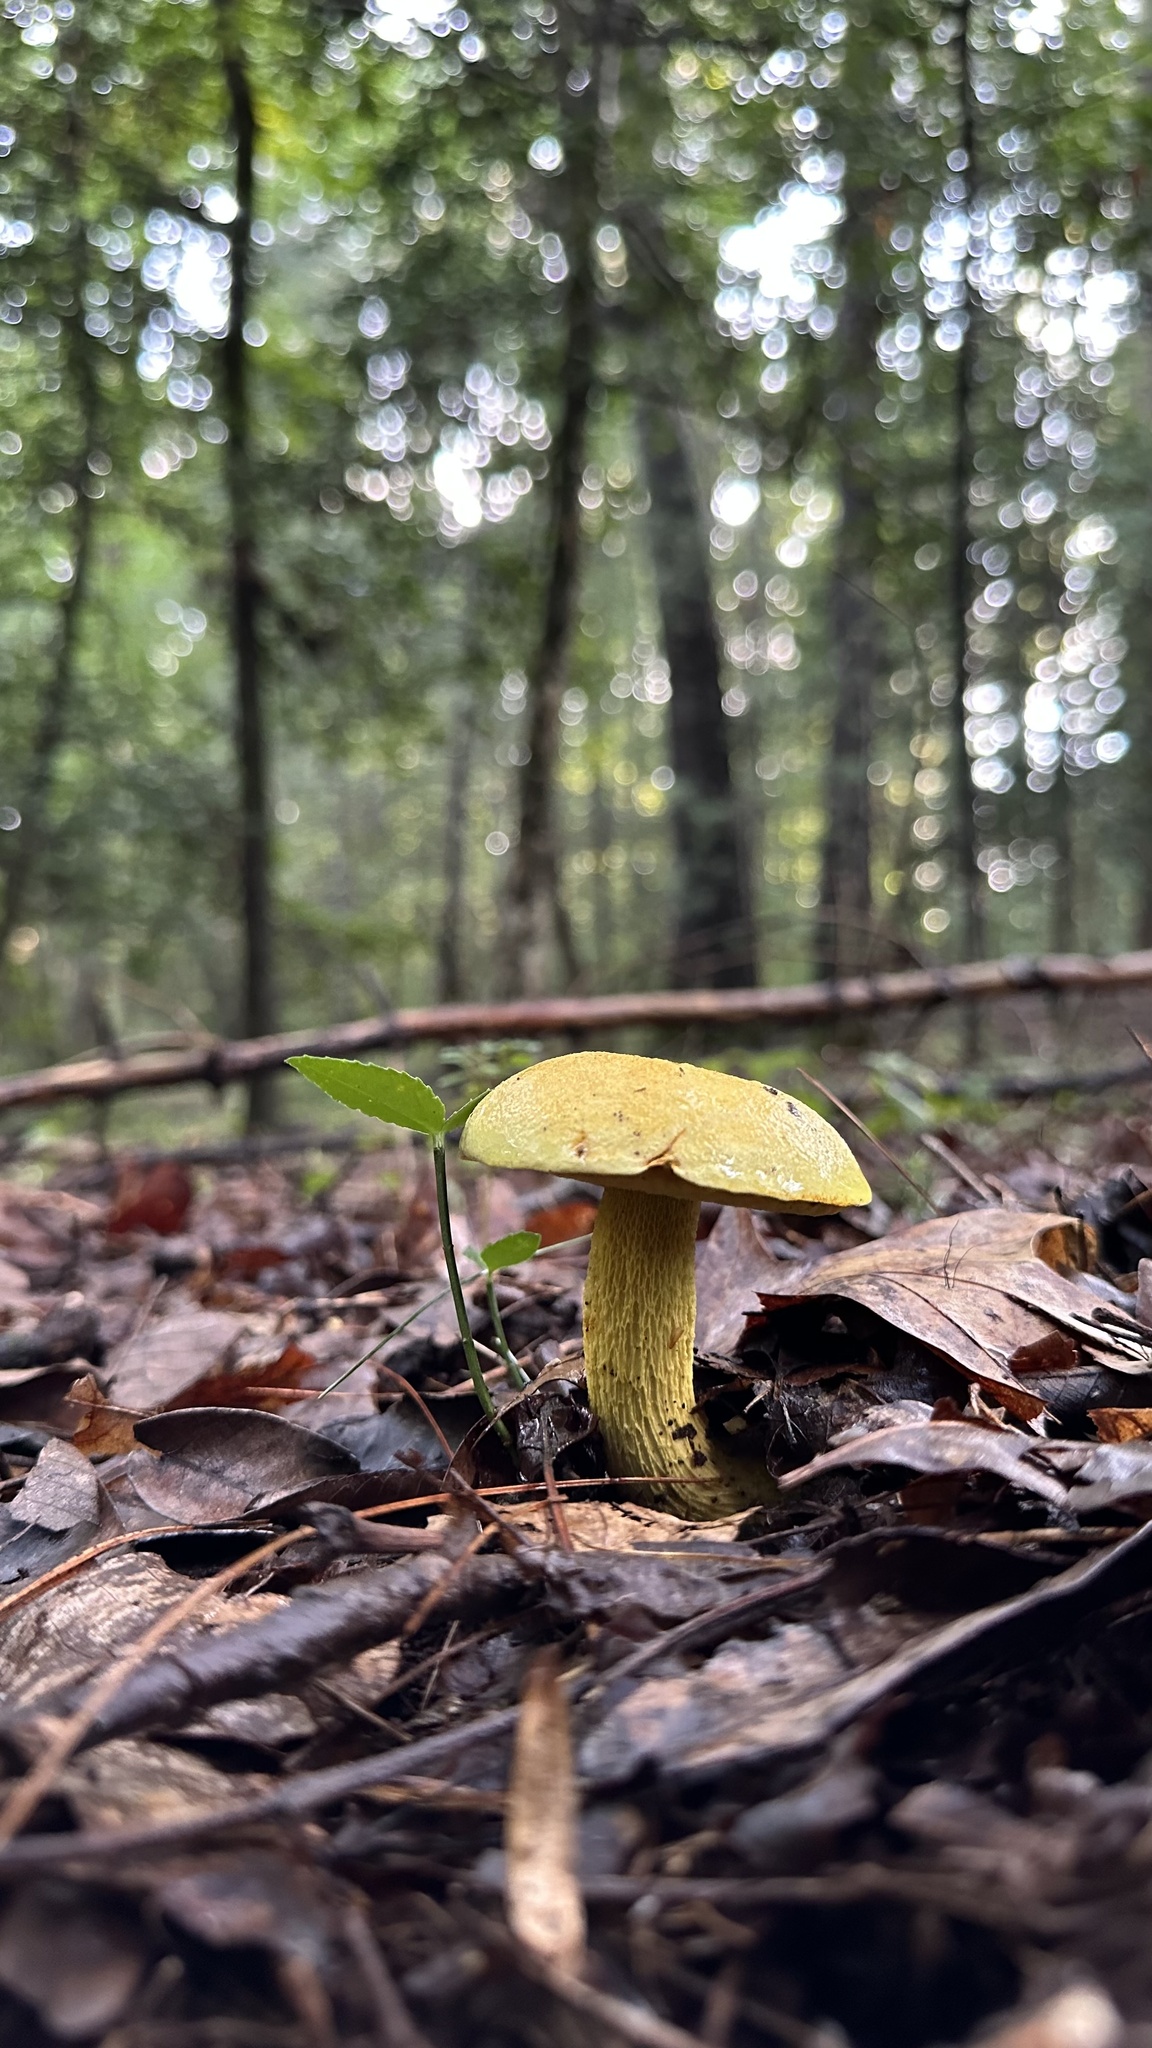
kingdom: Fungi
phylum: Basidiomycota
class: Agaricomycetes
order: Boletales
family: Boletaceae
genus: Retiboletus
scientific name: Retiboletus ornatipes
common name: Ornate-stalked bolete
